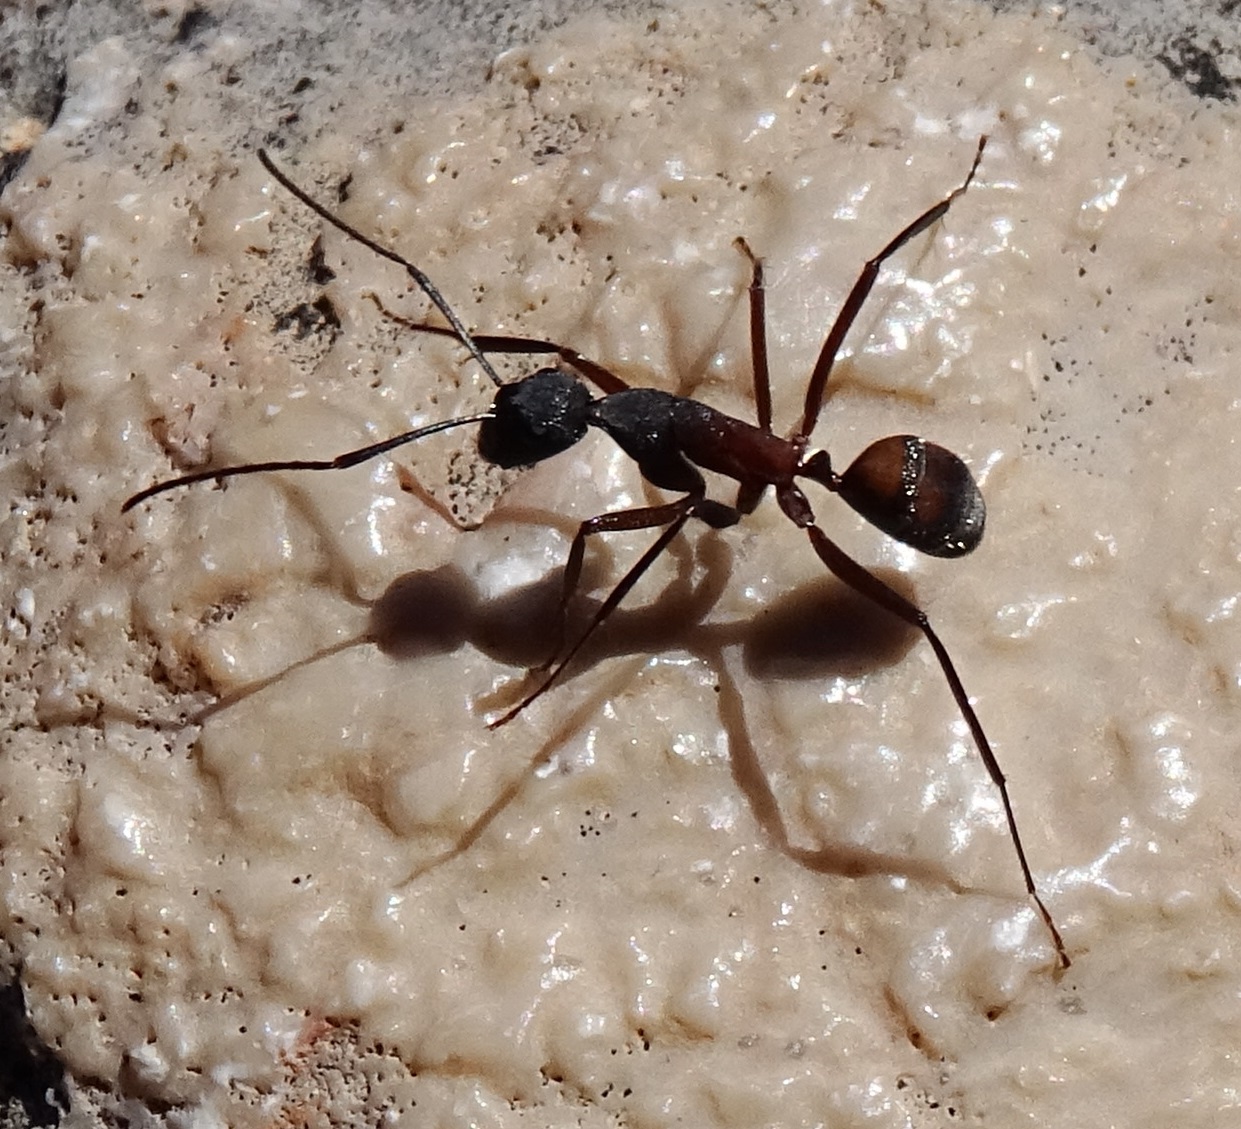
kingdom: Animalia
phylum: Arthropoda
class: Insecta
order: Hymenoptera
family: Formicidae
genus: Camponotus
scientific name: Camponotus cruentatus
